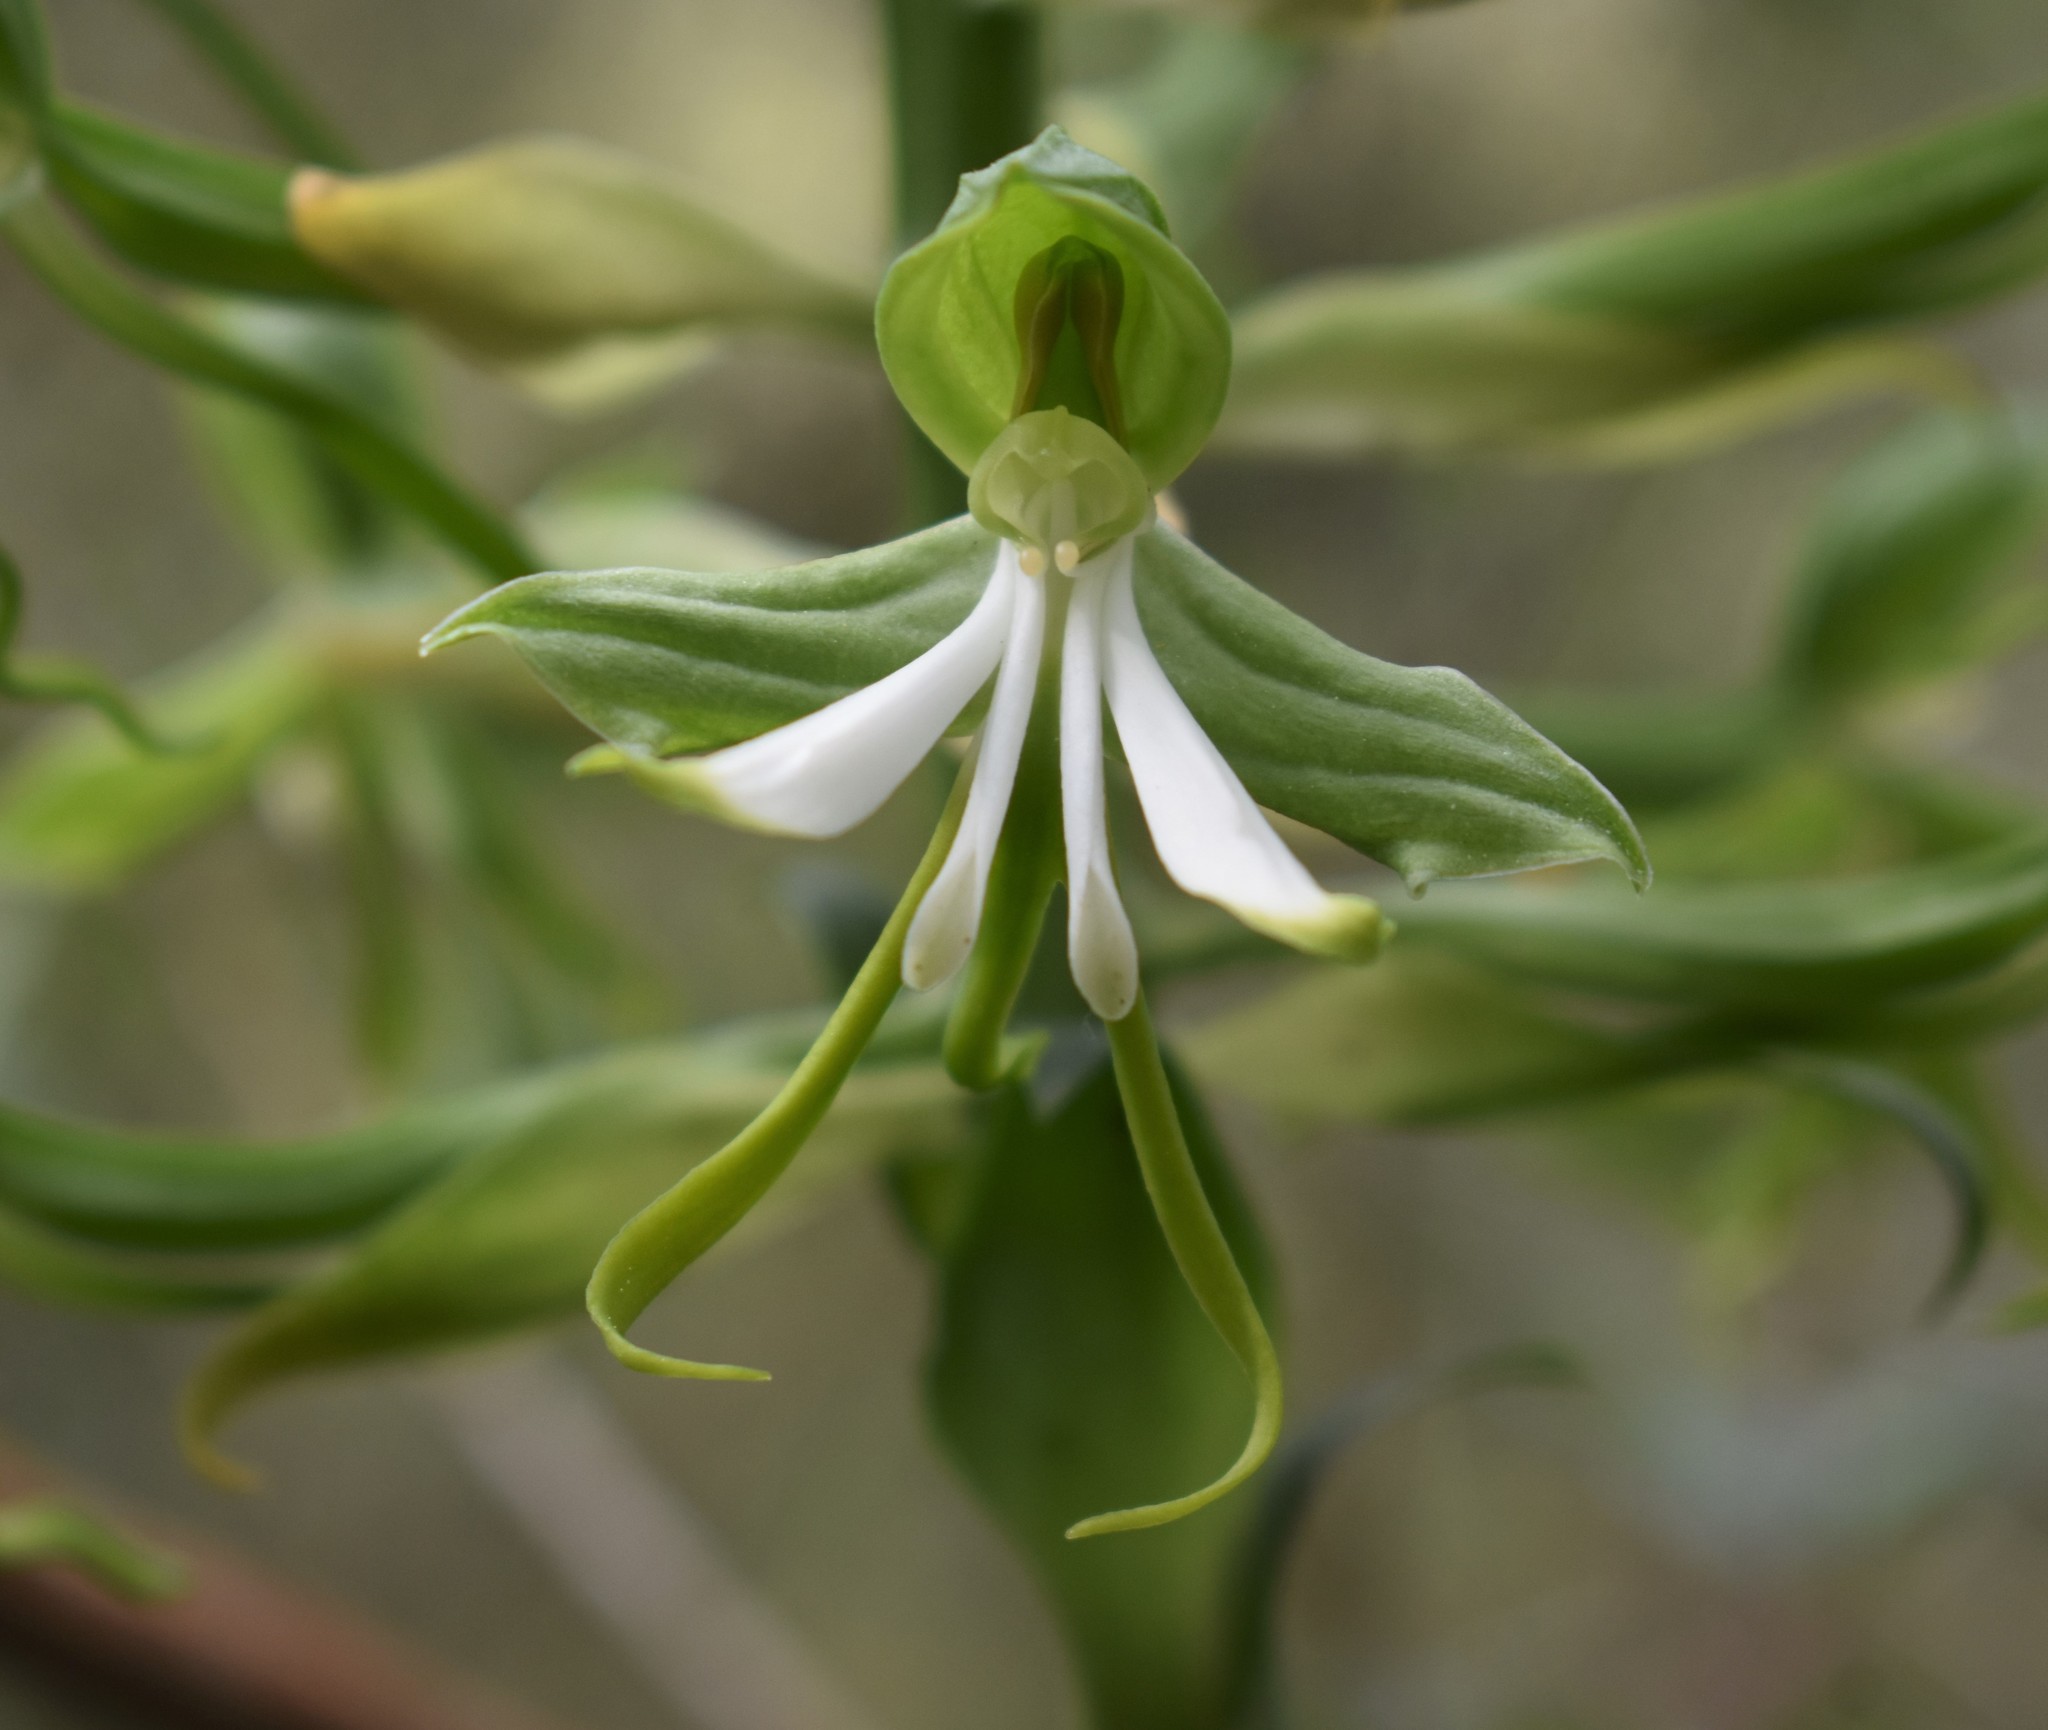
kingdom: Plantae
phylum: Tracheophyta
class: Liliopsida
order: Asparagales
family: Orchidaceae
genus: Bonatea
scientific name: Bonatea speciosa
